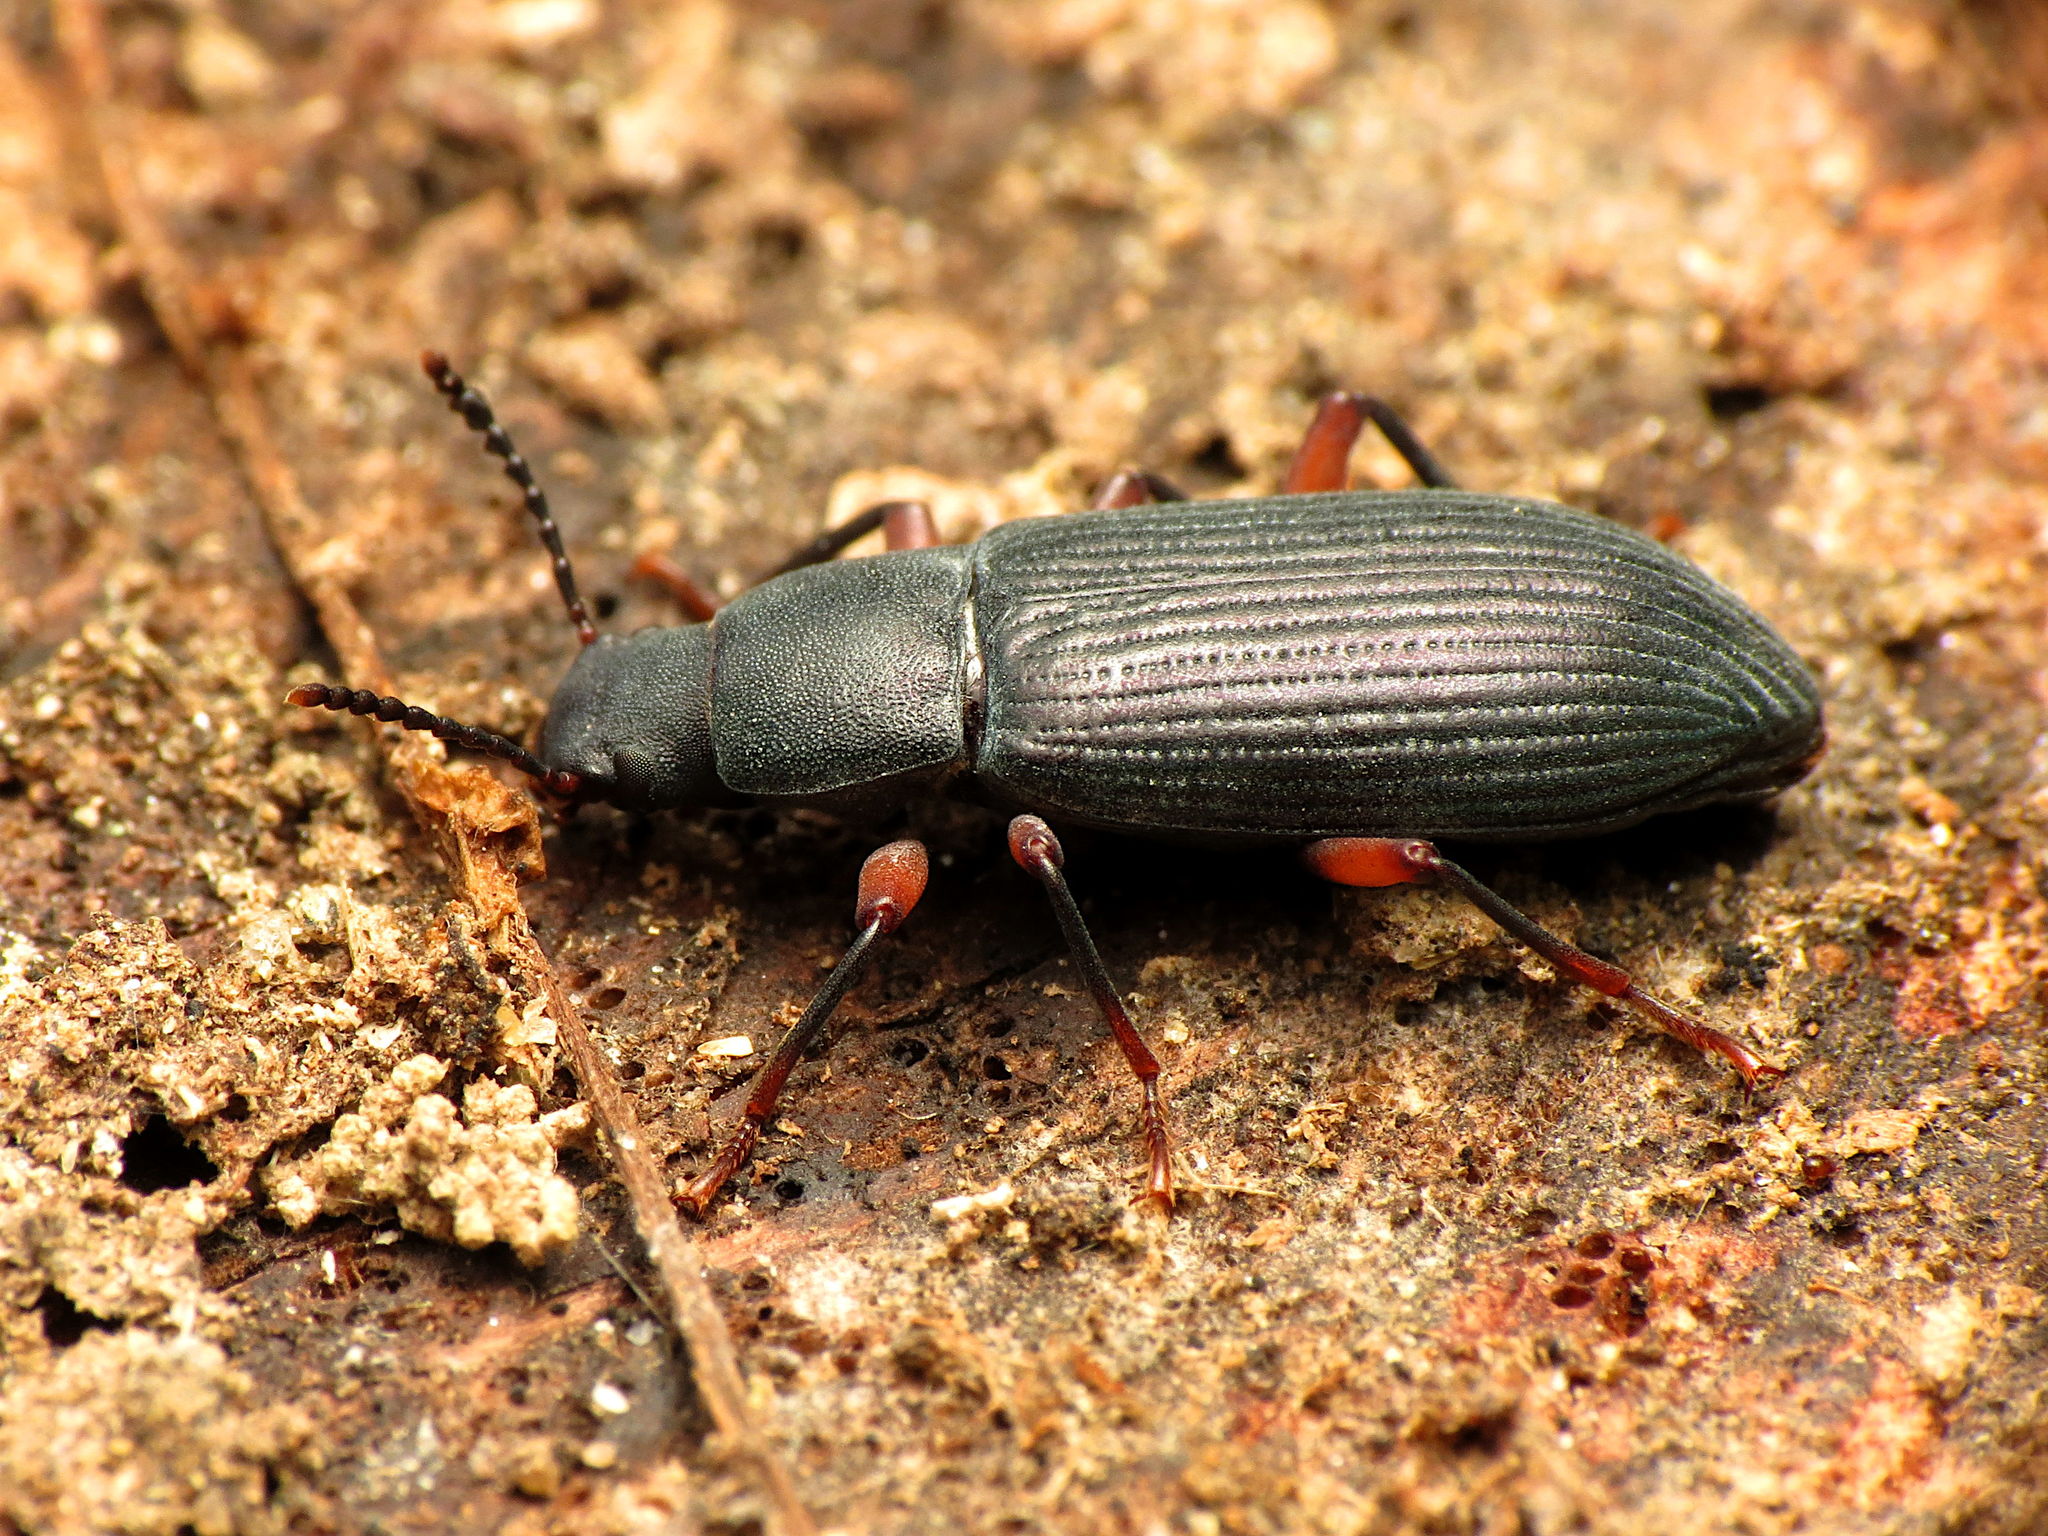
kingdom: Animalia
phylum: Arthropoda
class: Insecta
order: Coleoptera
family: Tenebrionidae
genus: Xylopinus
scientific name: Xylopinus saperdoides
